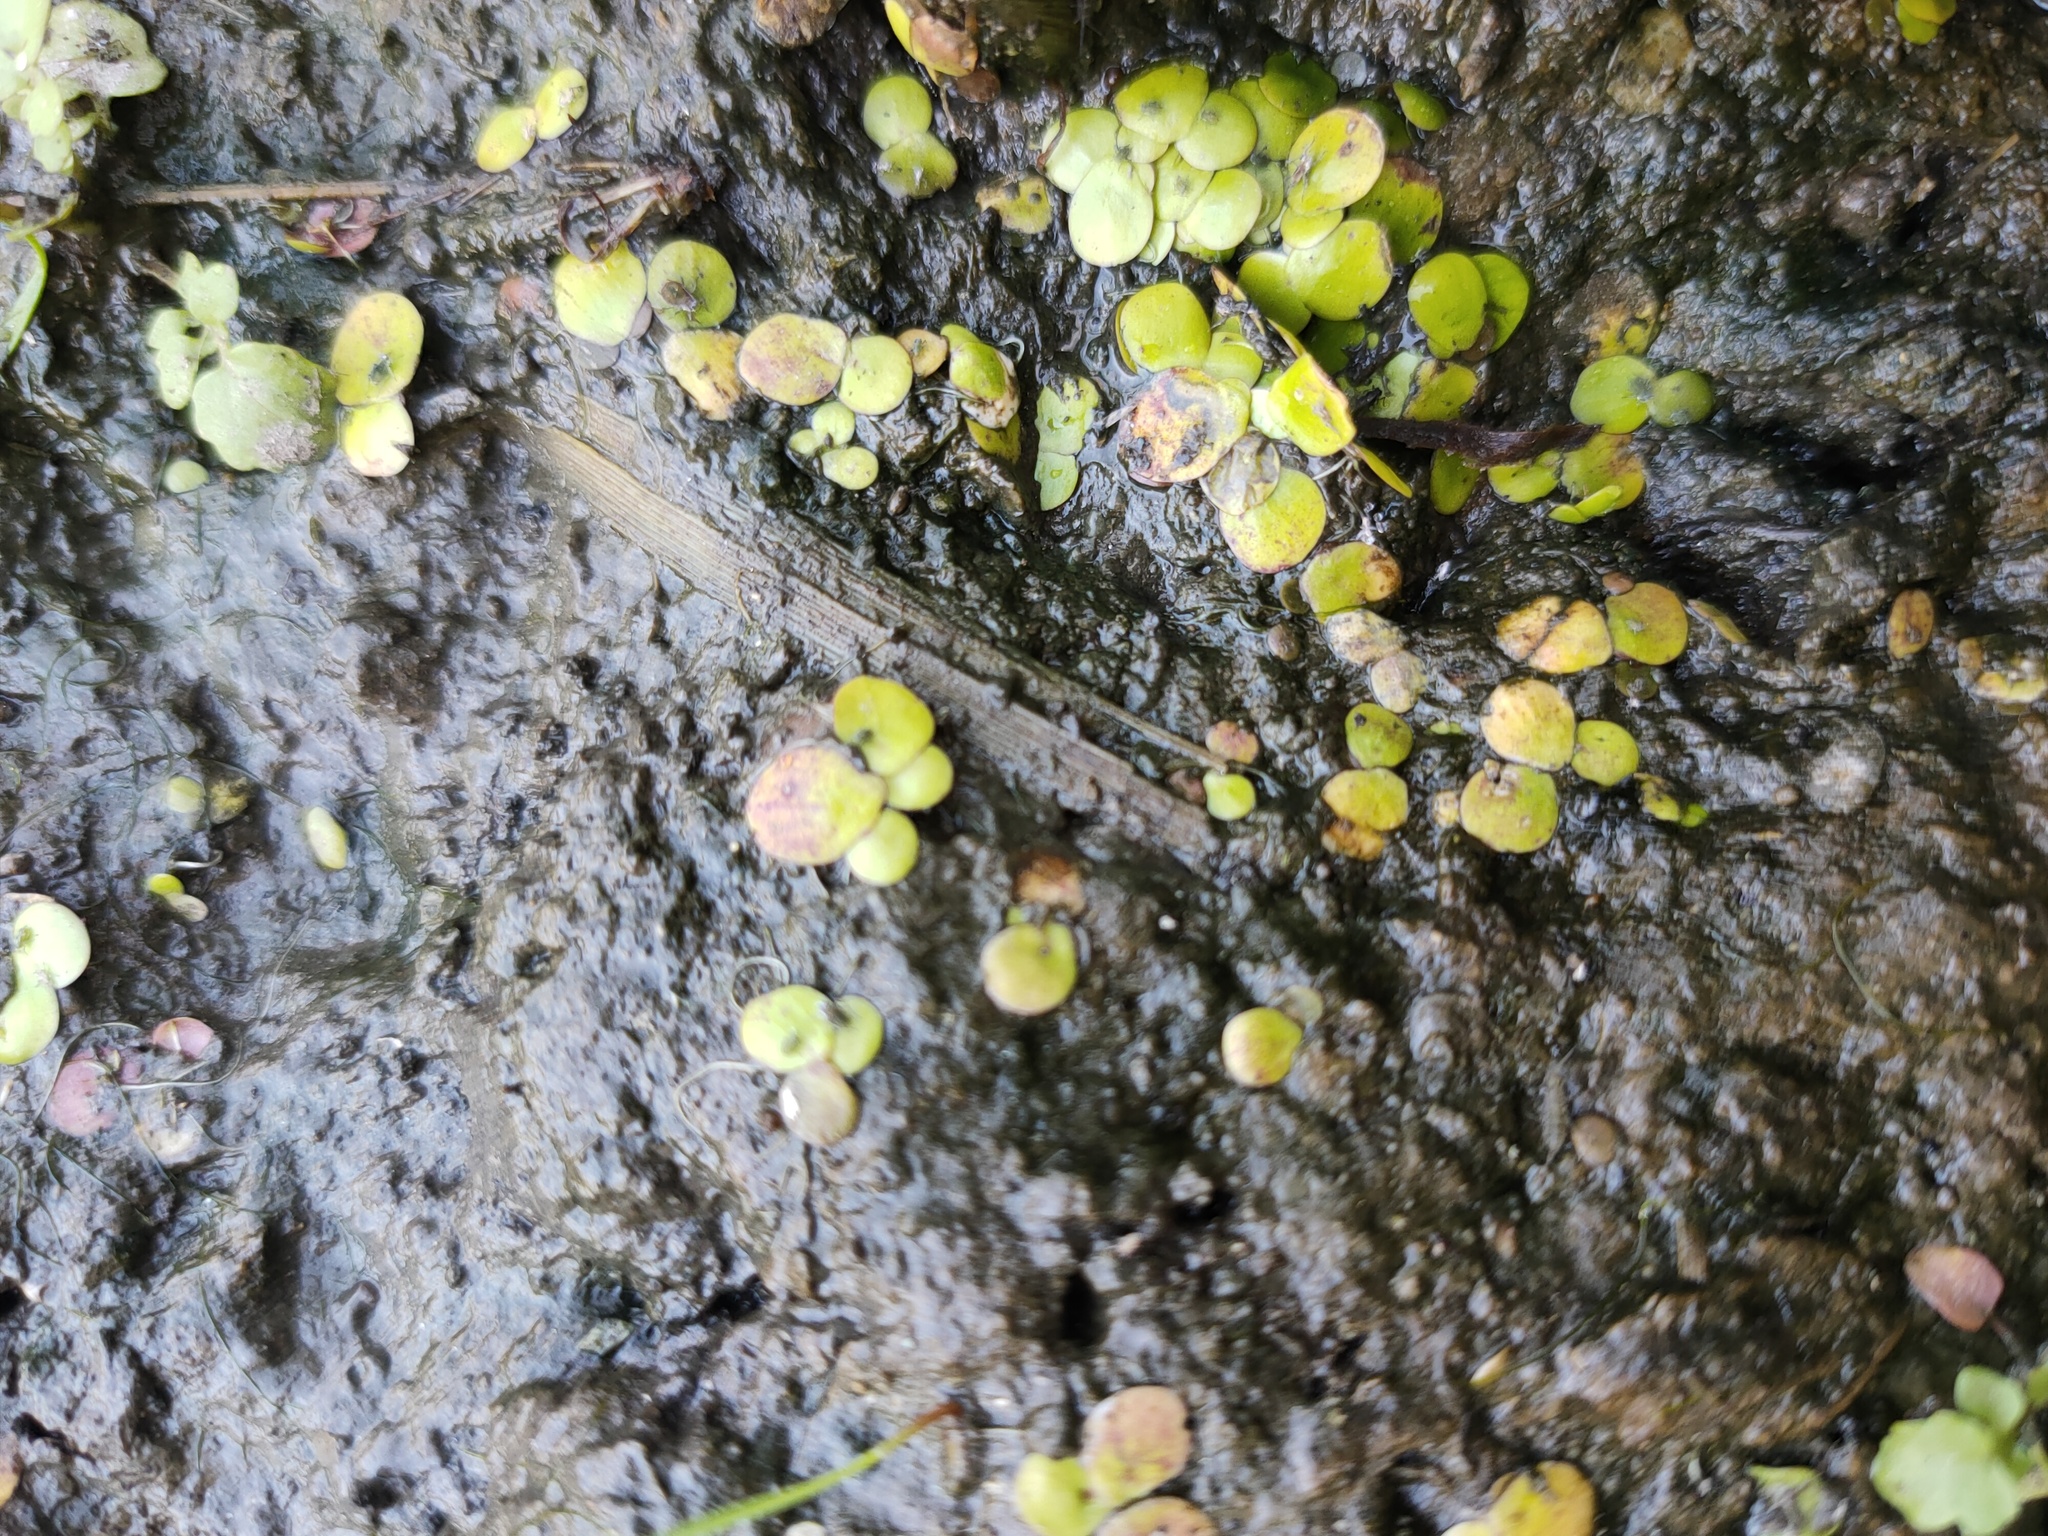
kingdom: Plantae
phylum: Tracheophyta
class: Liliopsida
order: Alismatales
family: Araceae
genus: Spirodela
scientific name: Spirodela polyrhiza
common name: Great duckweed
